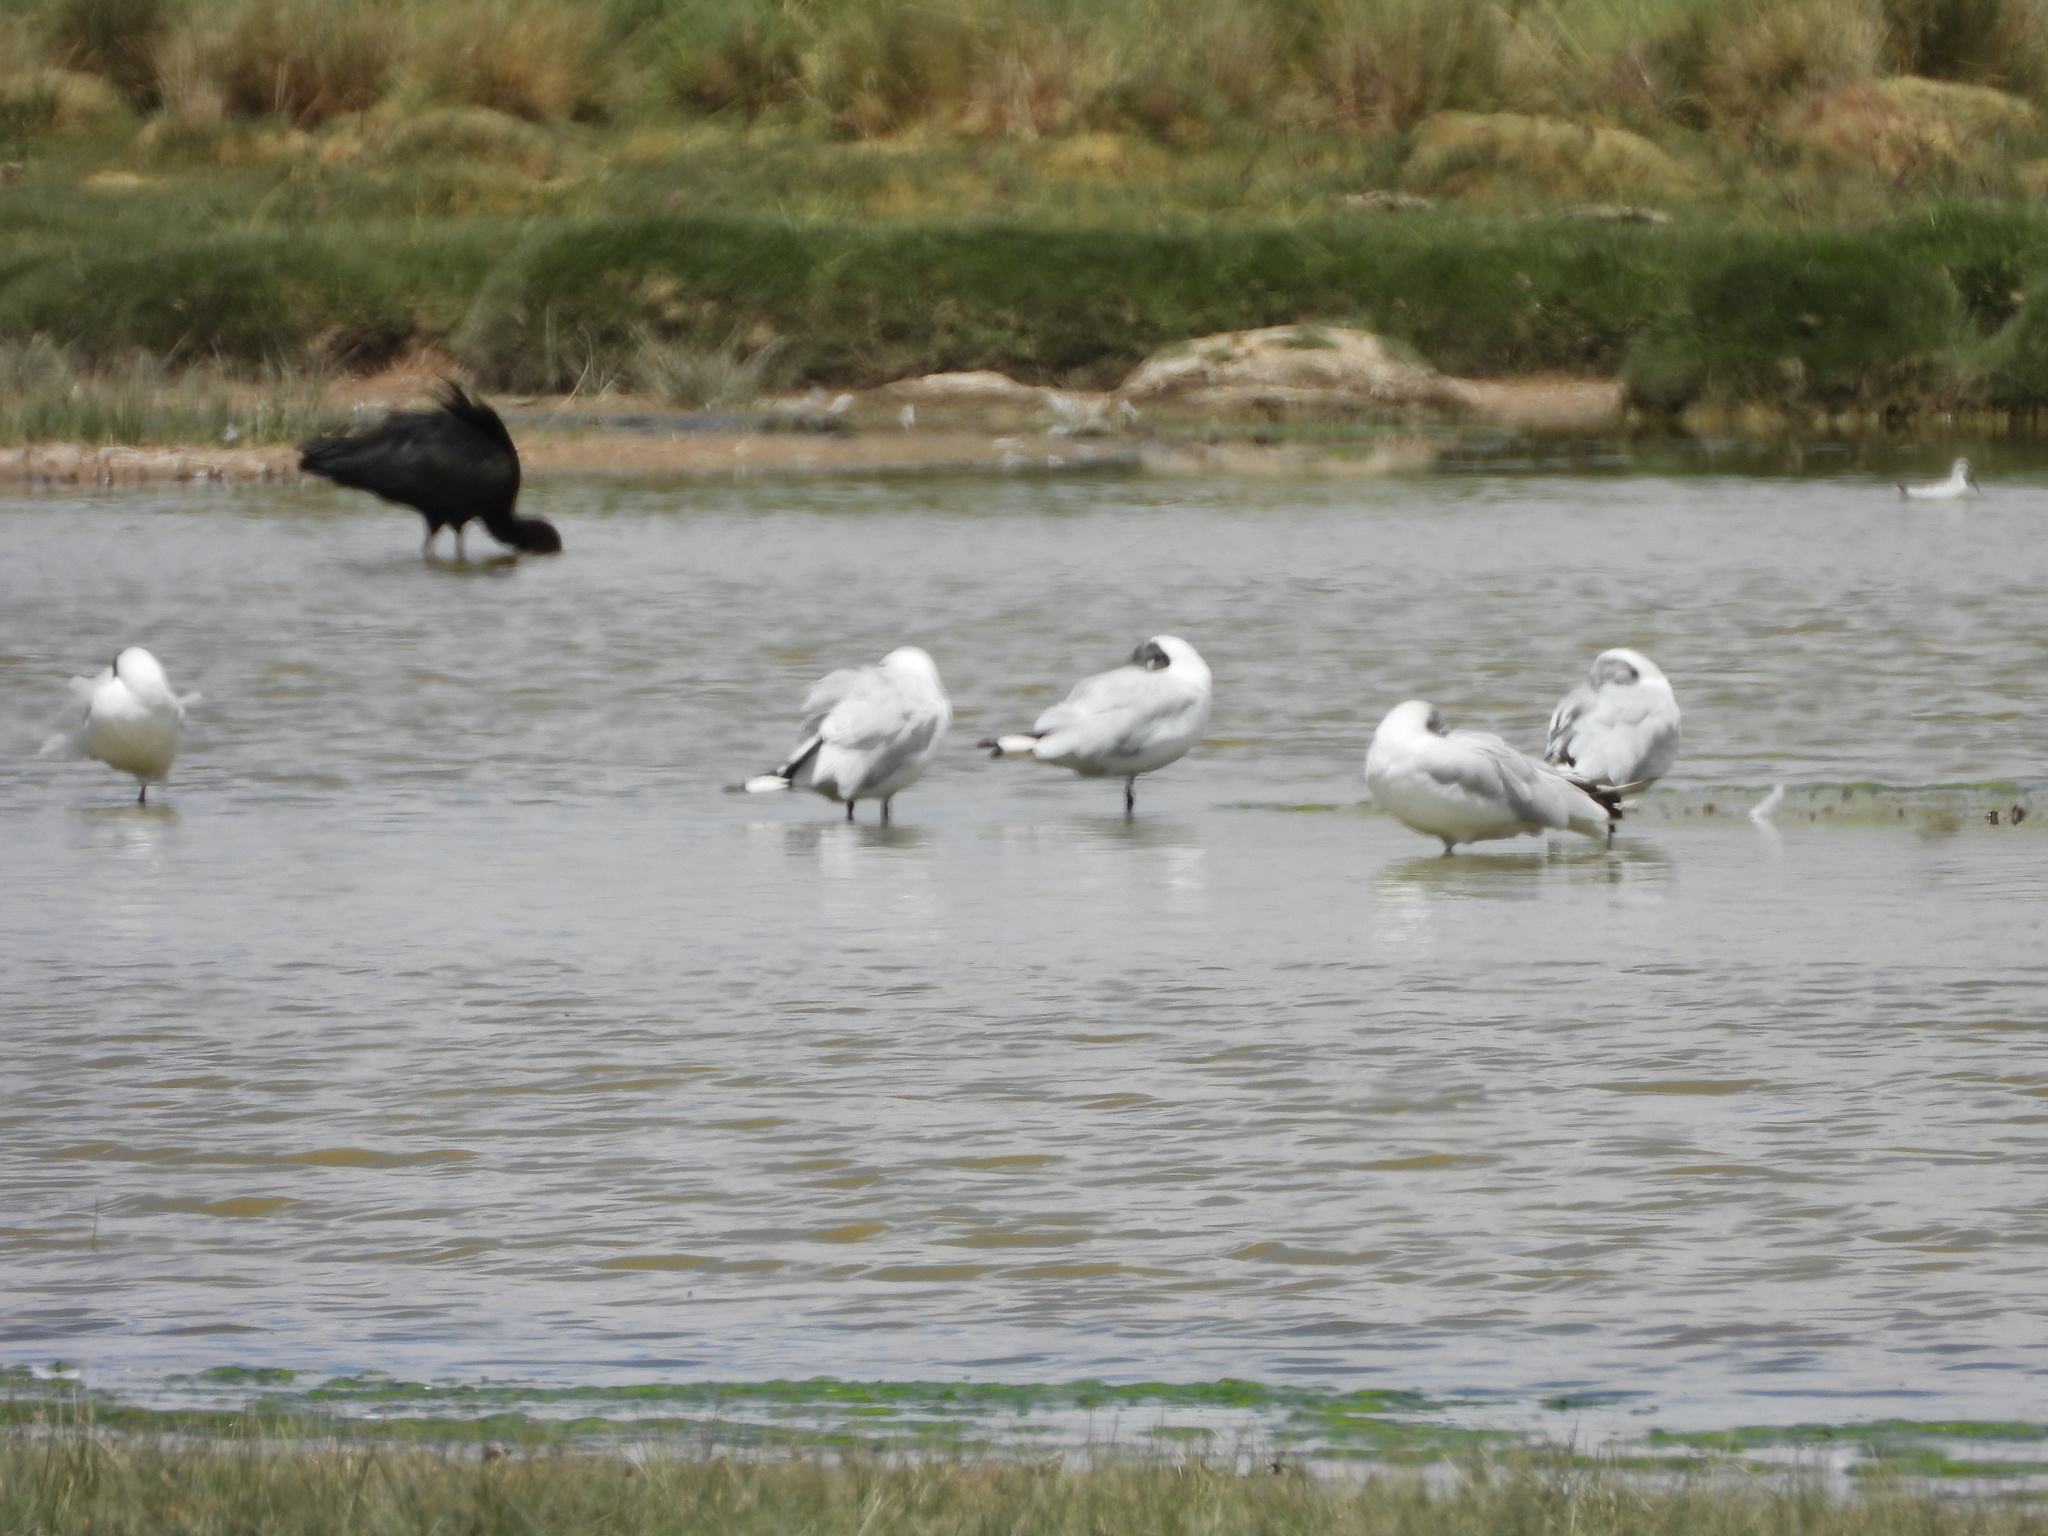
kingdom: Animalia
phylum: Chordata
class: Aves
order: Charadriiformes
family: Laridae
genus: Chroicocephalus
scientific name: Chroicocephalus serranus
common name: Andean gull
